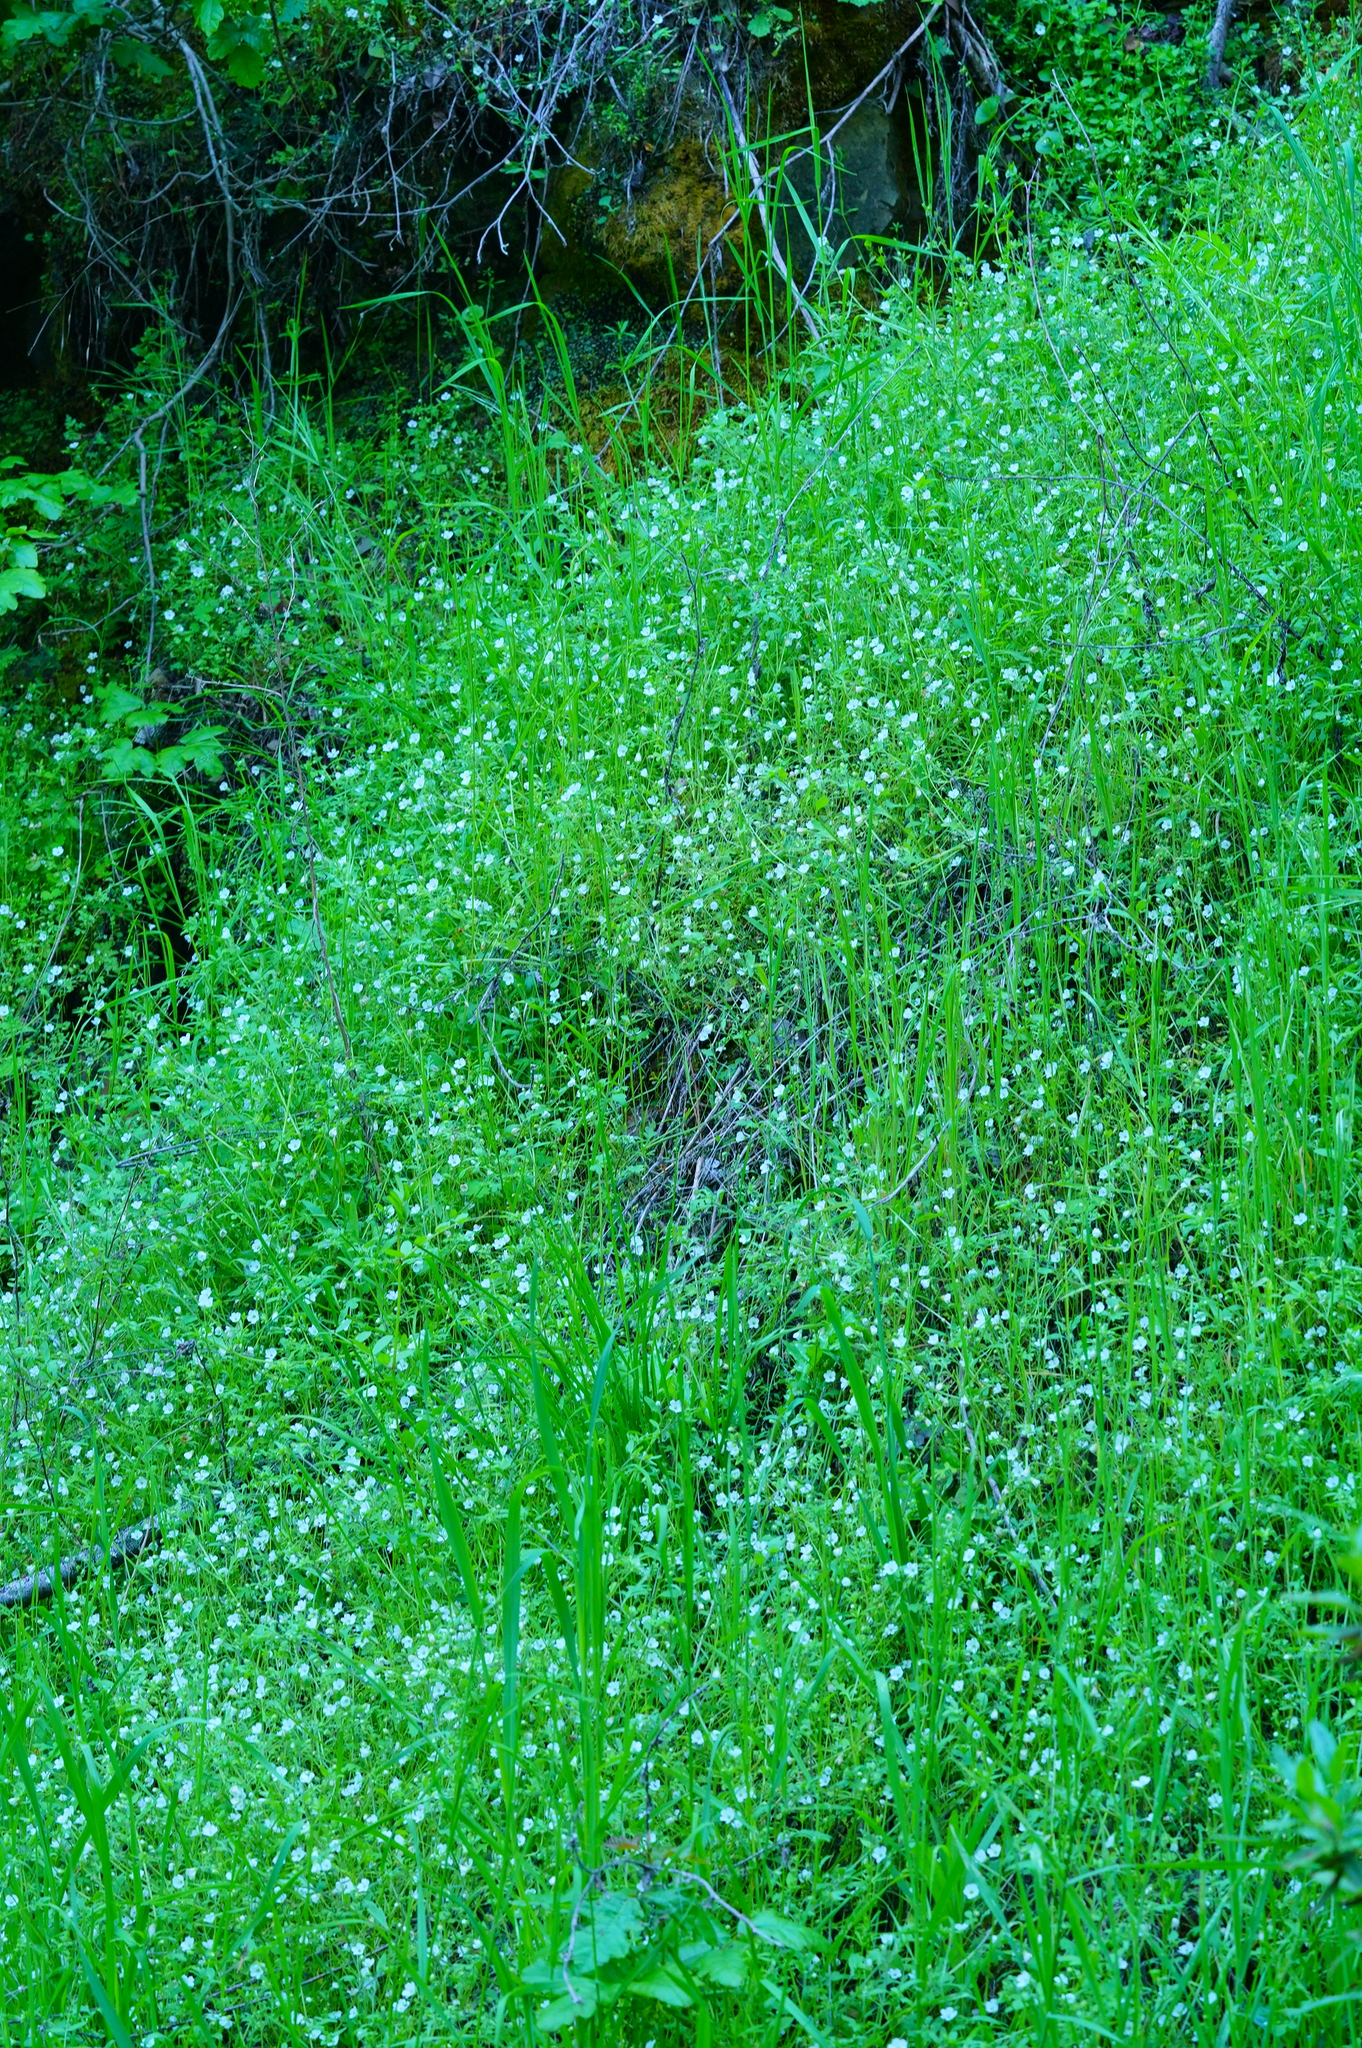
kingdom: Plantae
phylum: Tracheophyta
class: Magnoliopsida
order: Boraginales
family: Hydrophyllaceae
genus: Nemophila
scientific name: Nemophila heterophylla
